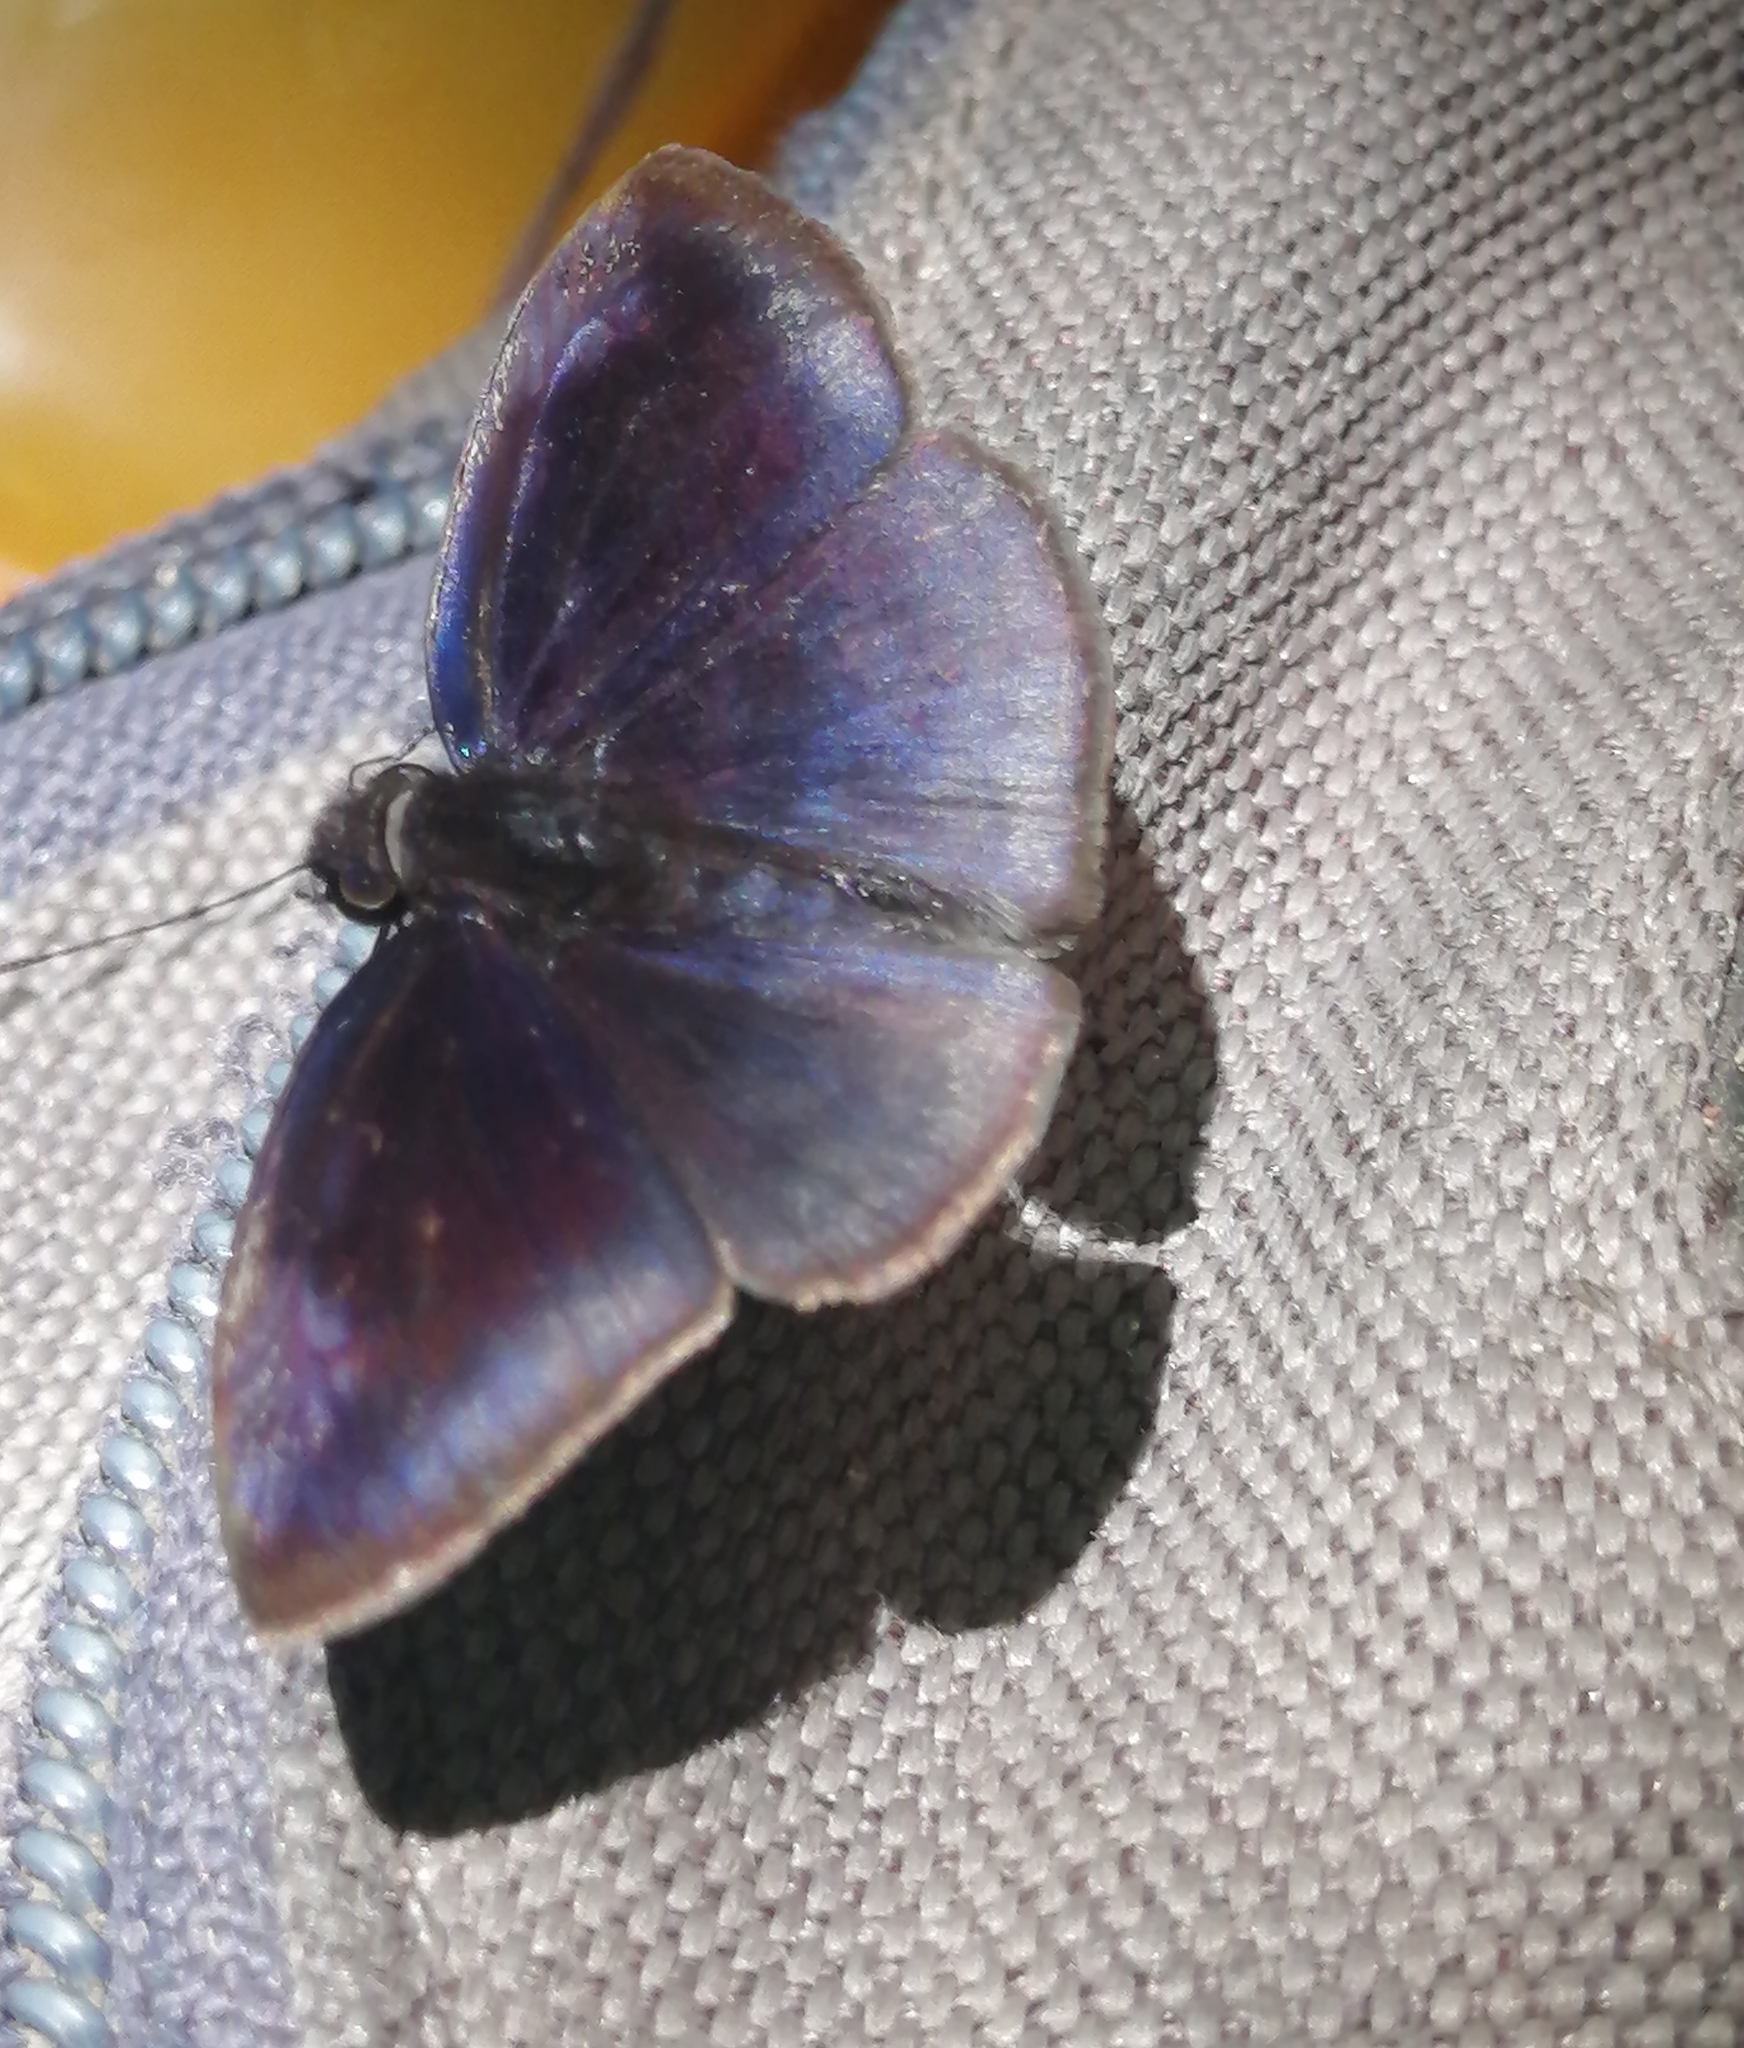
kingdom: Animalia
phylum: Arthropoda
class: Insecta
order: Lepidoptera
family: Hesperiidae
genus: Anastrus
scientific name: Anastrus obscurus
